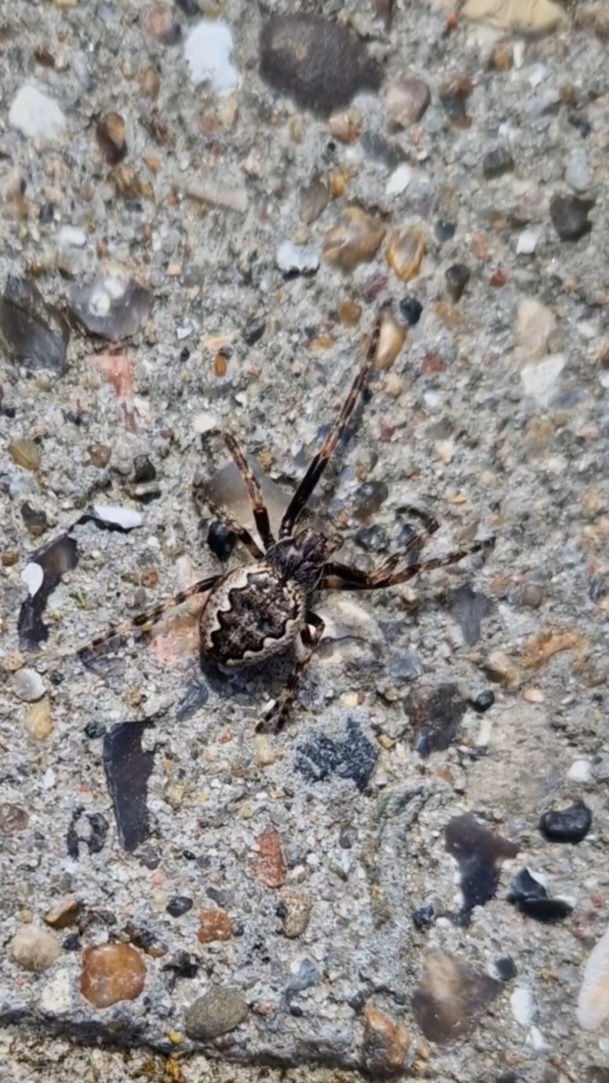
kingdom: Animalia
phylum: Arthropoda
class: Arachnida
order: Araneae
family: Araneidae
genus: Nuctenea
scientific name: Nuctenea umbratica
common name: Toad spider
